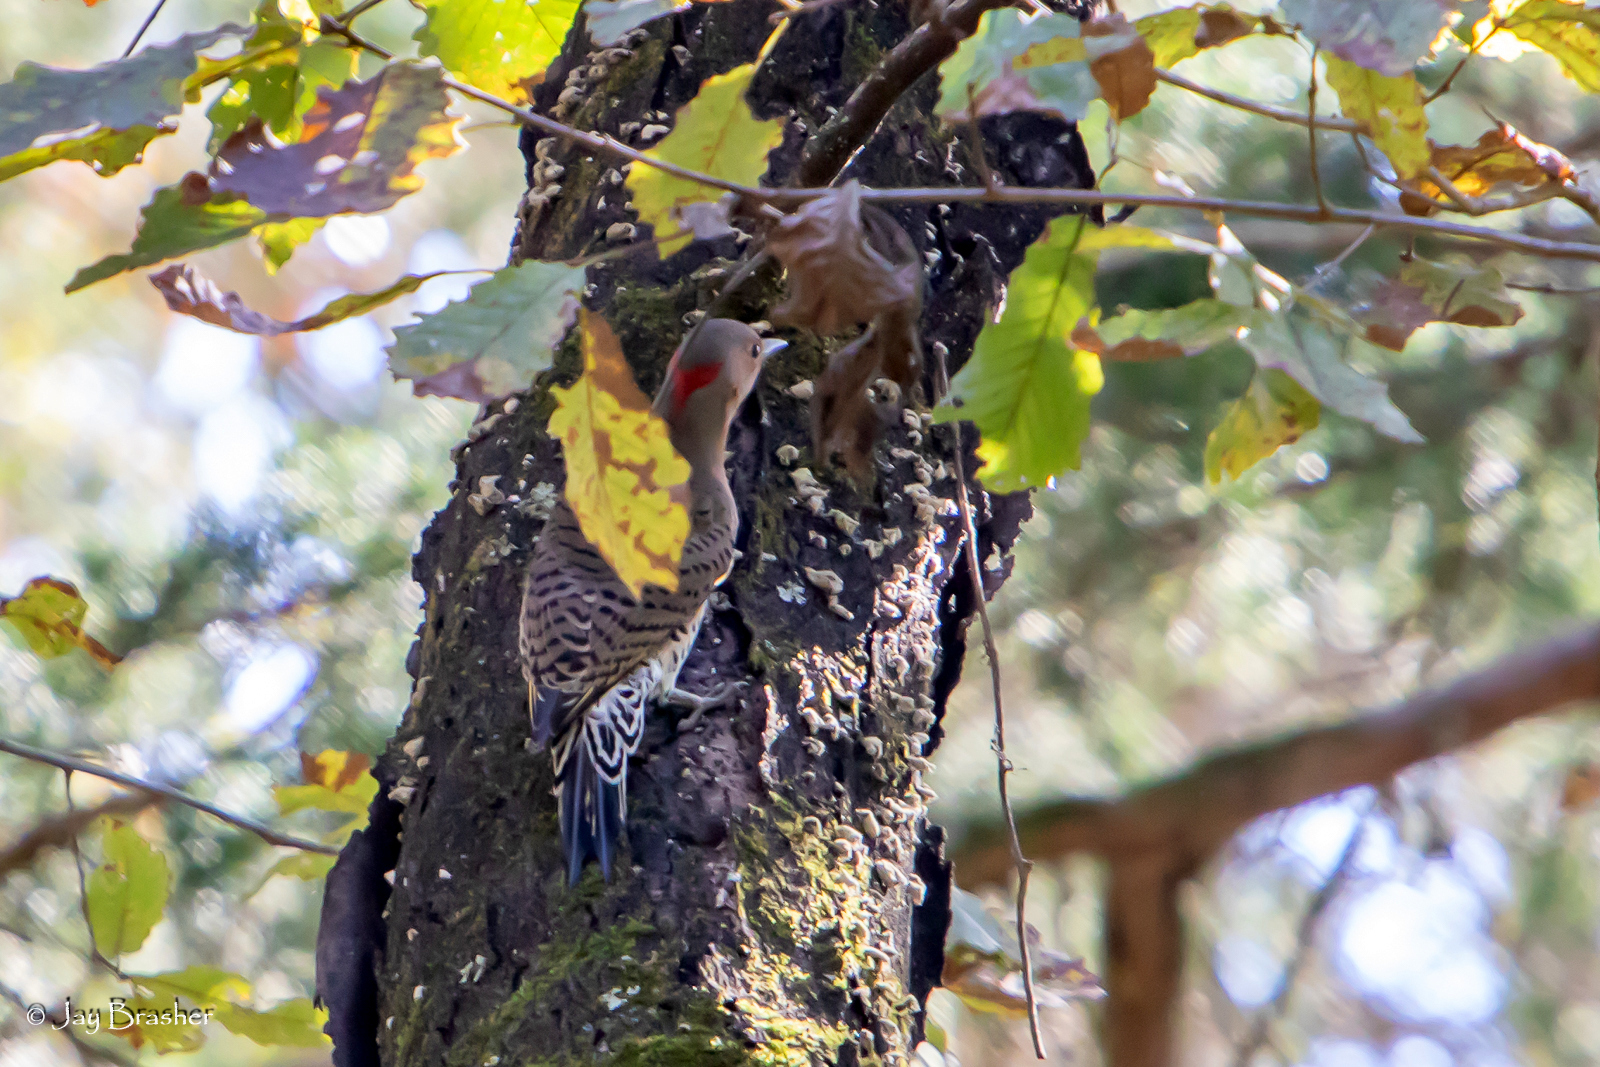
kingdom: Animalia
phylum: Chordata
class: Aves
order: Piciformes
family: Picidae
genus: Colaptes
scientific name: Colaptes auratus
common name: Northern flicker
